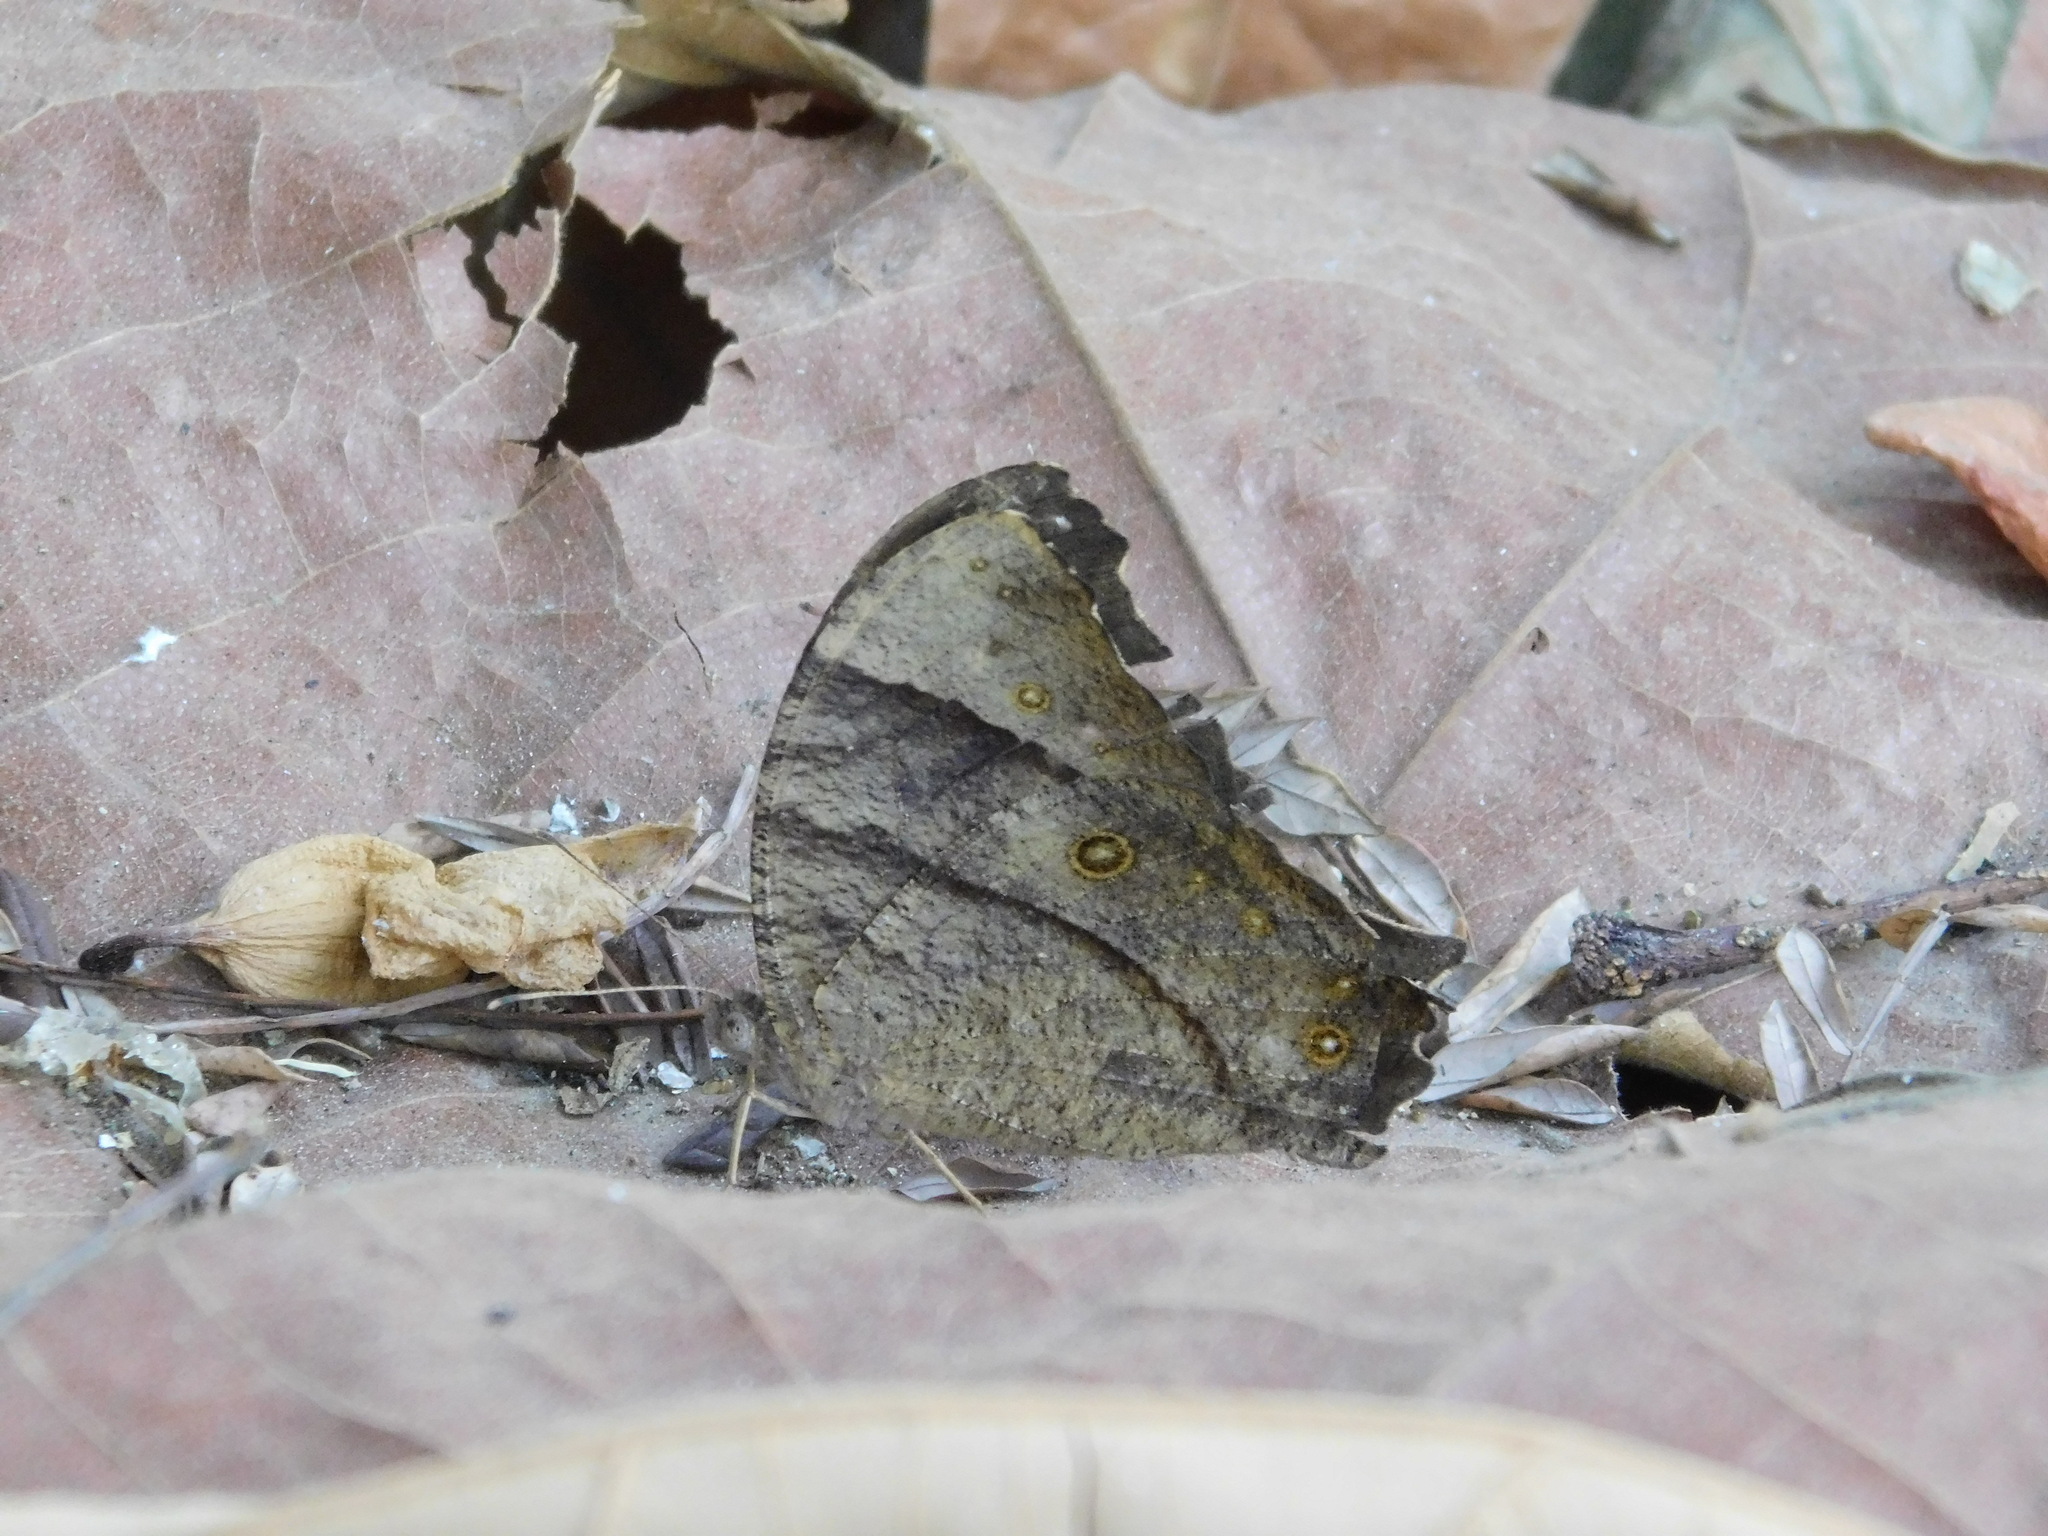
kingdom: Animalia
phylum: Arthropoda
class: Insecta
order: Lepidoptera
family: Nymphalidae
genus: Melanitis
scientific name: Melanitis phedima
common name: Dark evening brown
